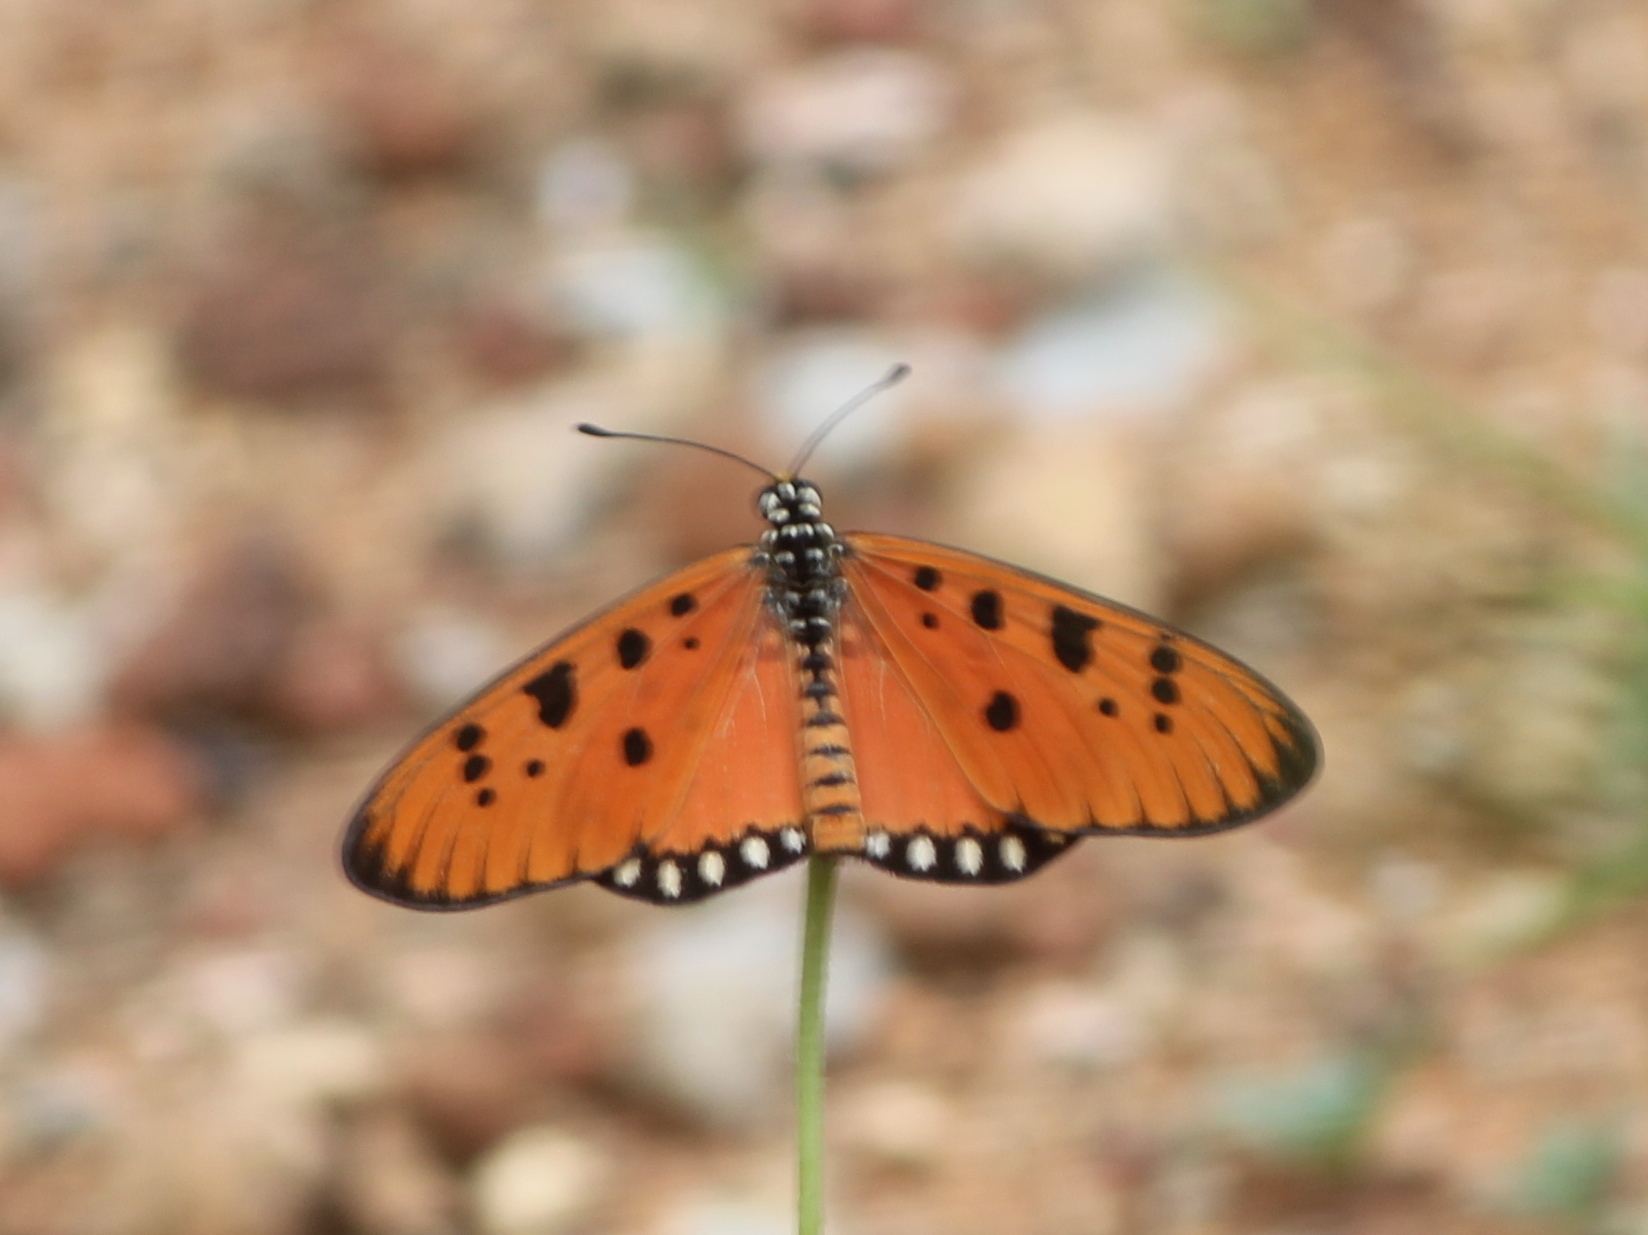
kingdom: Animalia
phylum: Arthropoda
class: Insecta
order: Lepidoptera
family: Nymphalidae
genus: Acraea
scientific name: Acraea terpsicore
